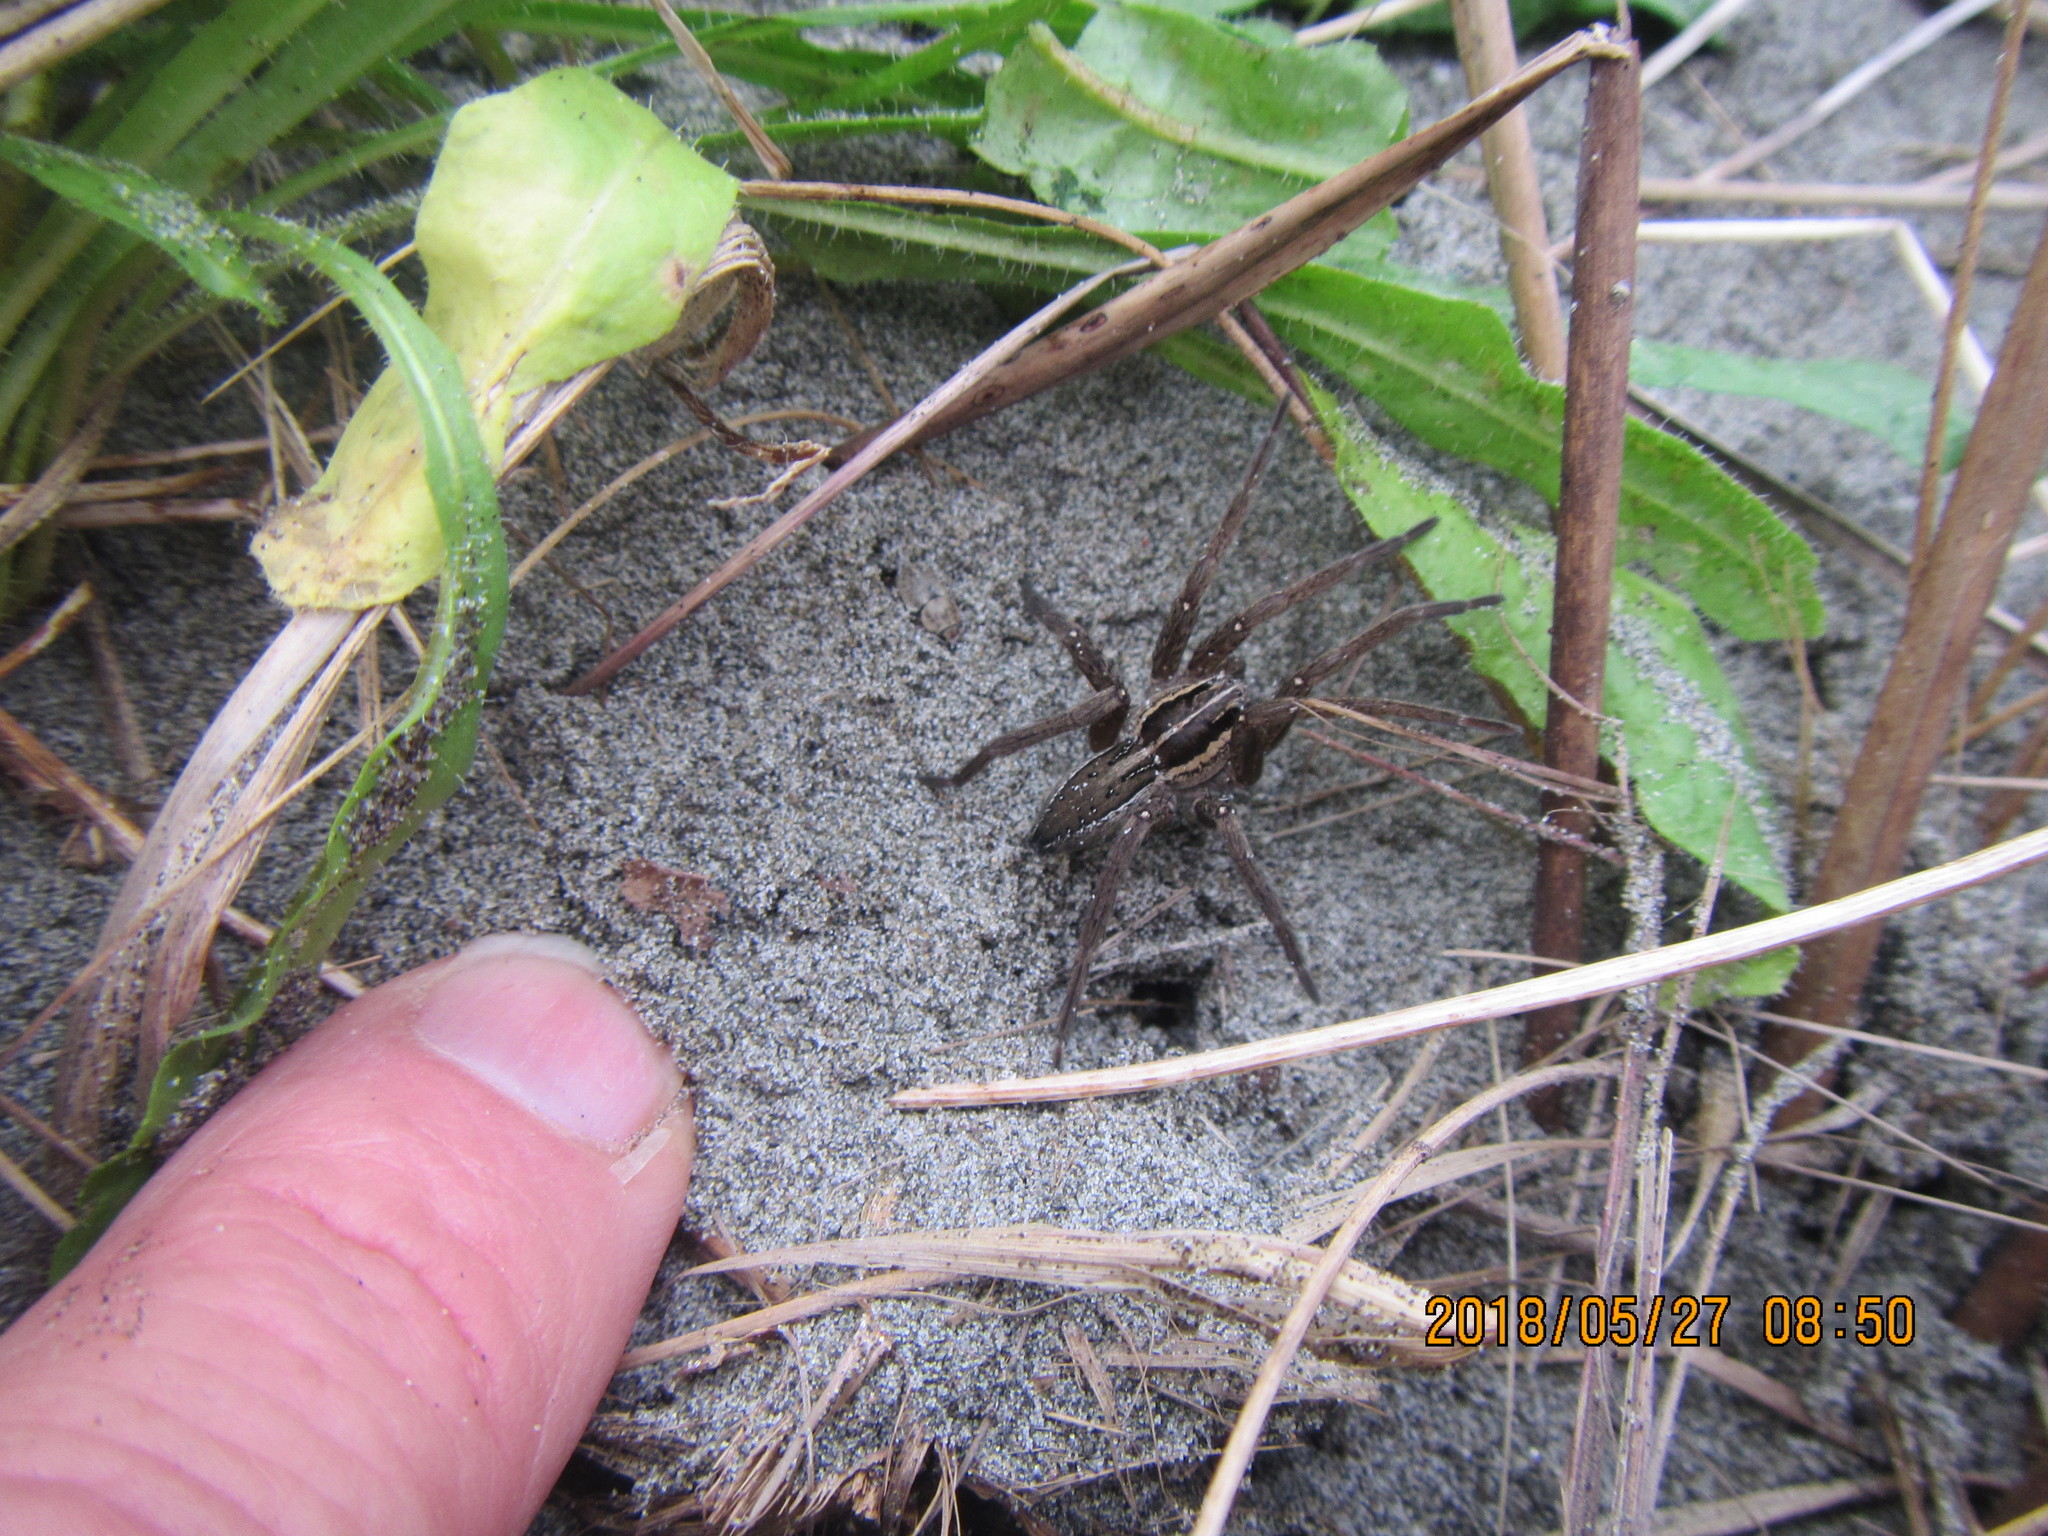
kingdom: Animalia
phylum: Arthropoda
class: Arachnida
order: Araneae
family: Pisauridae
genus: Dolomedes
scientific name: Dolomedes minor
